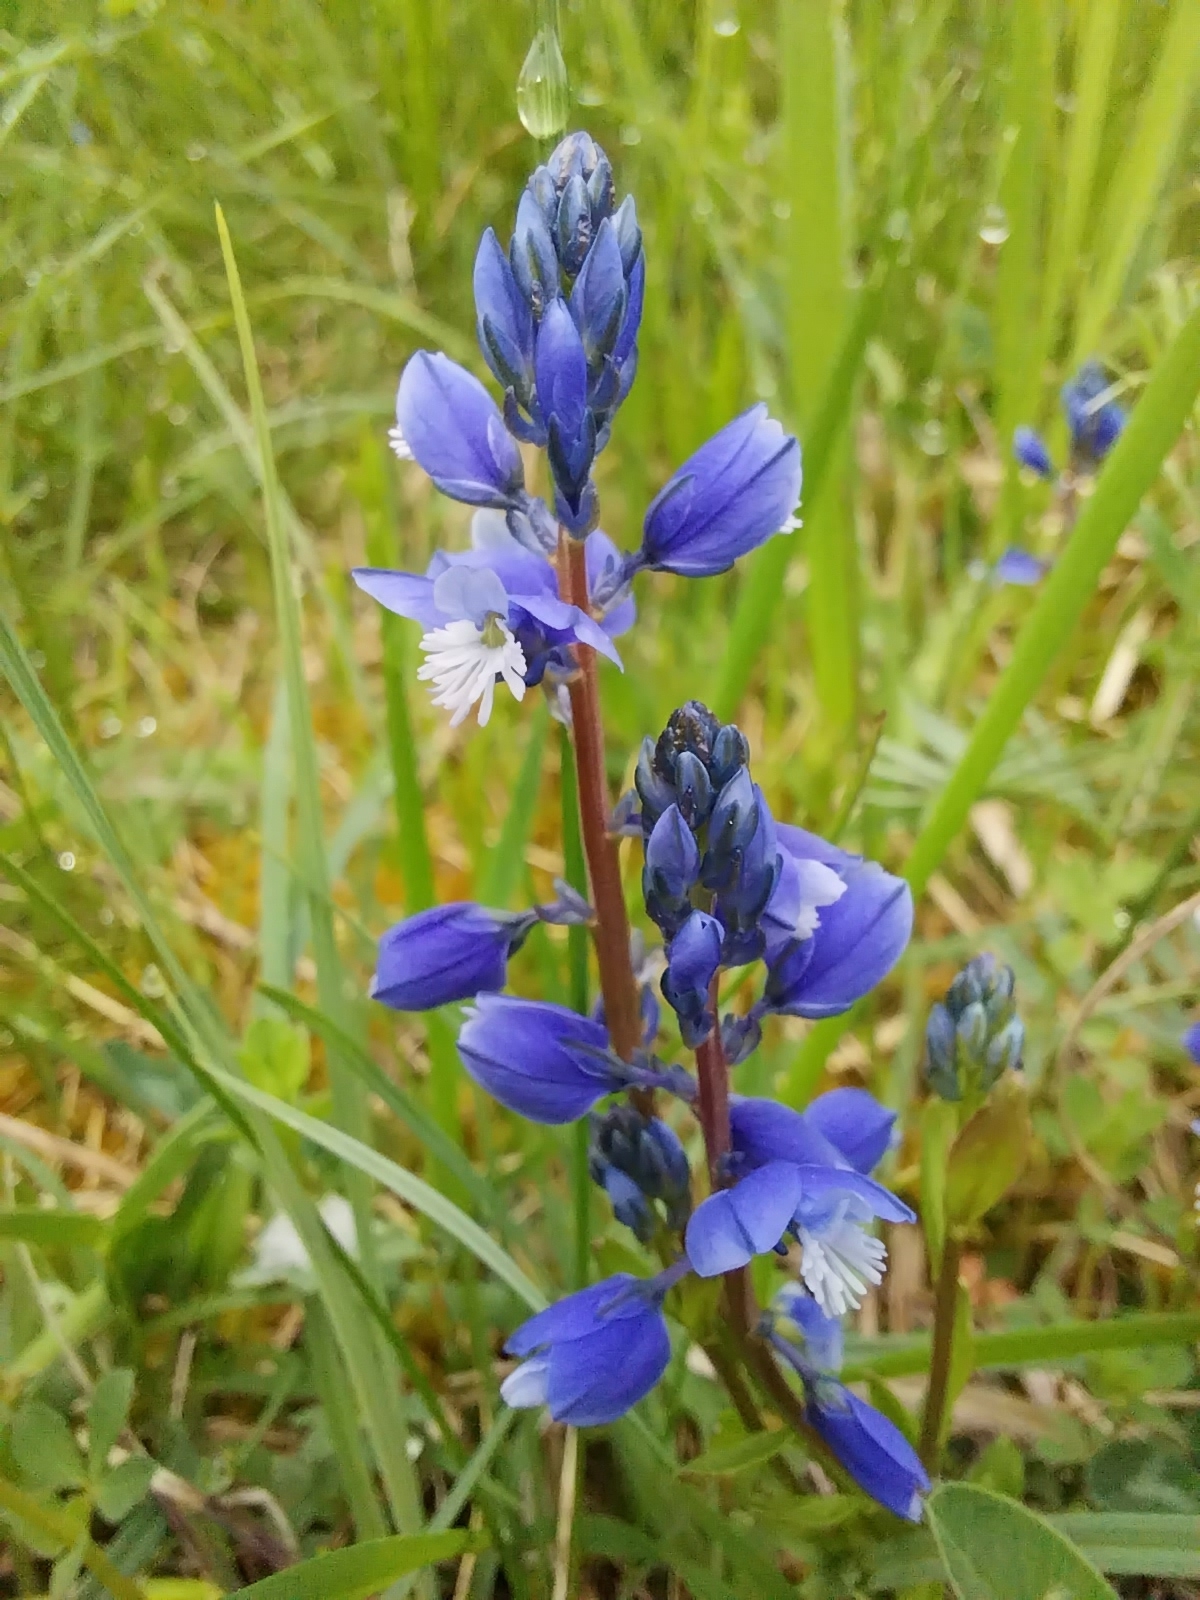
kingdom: Plantae
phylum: Tracheophyta
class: Magnoliopsida
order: Fabales
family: Polygalaceae
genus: Polygala
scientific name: Polygala vulgaris
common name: Common milkwort
